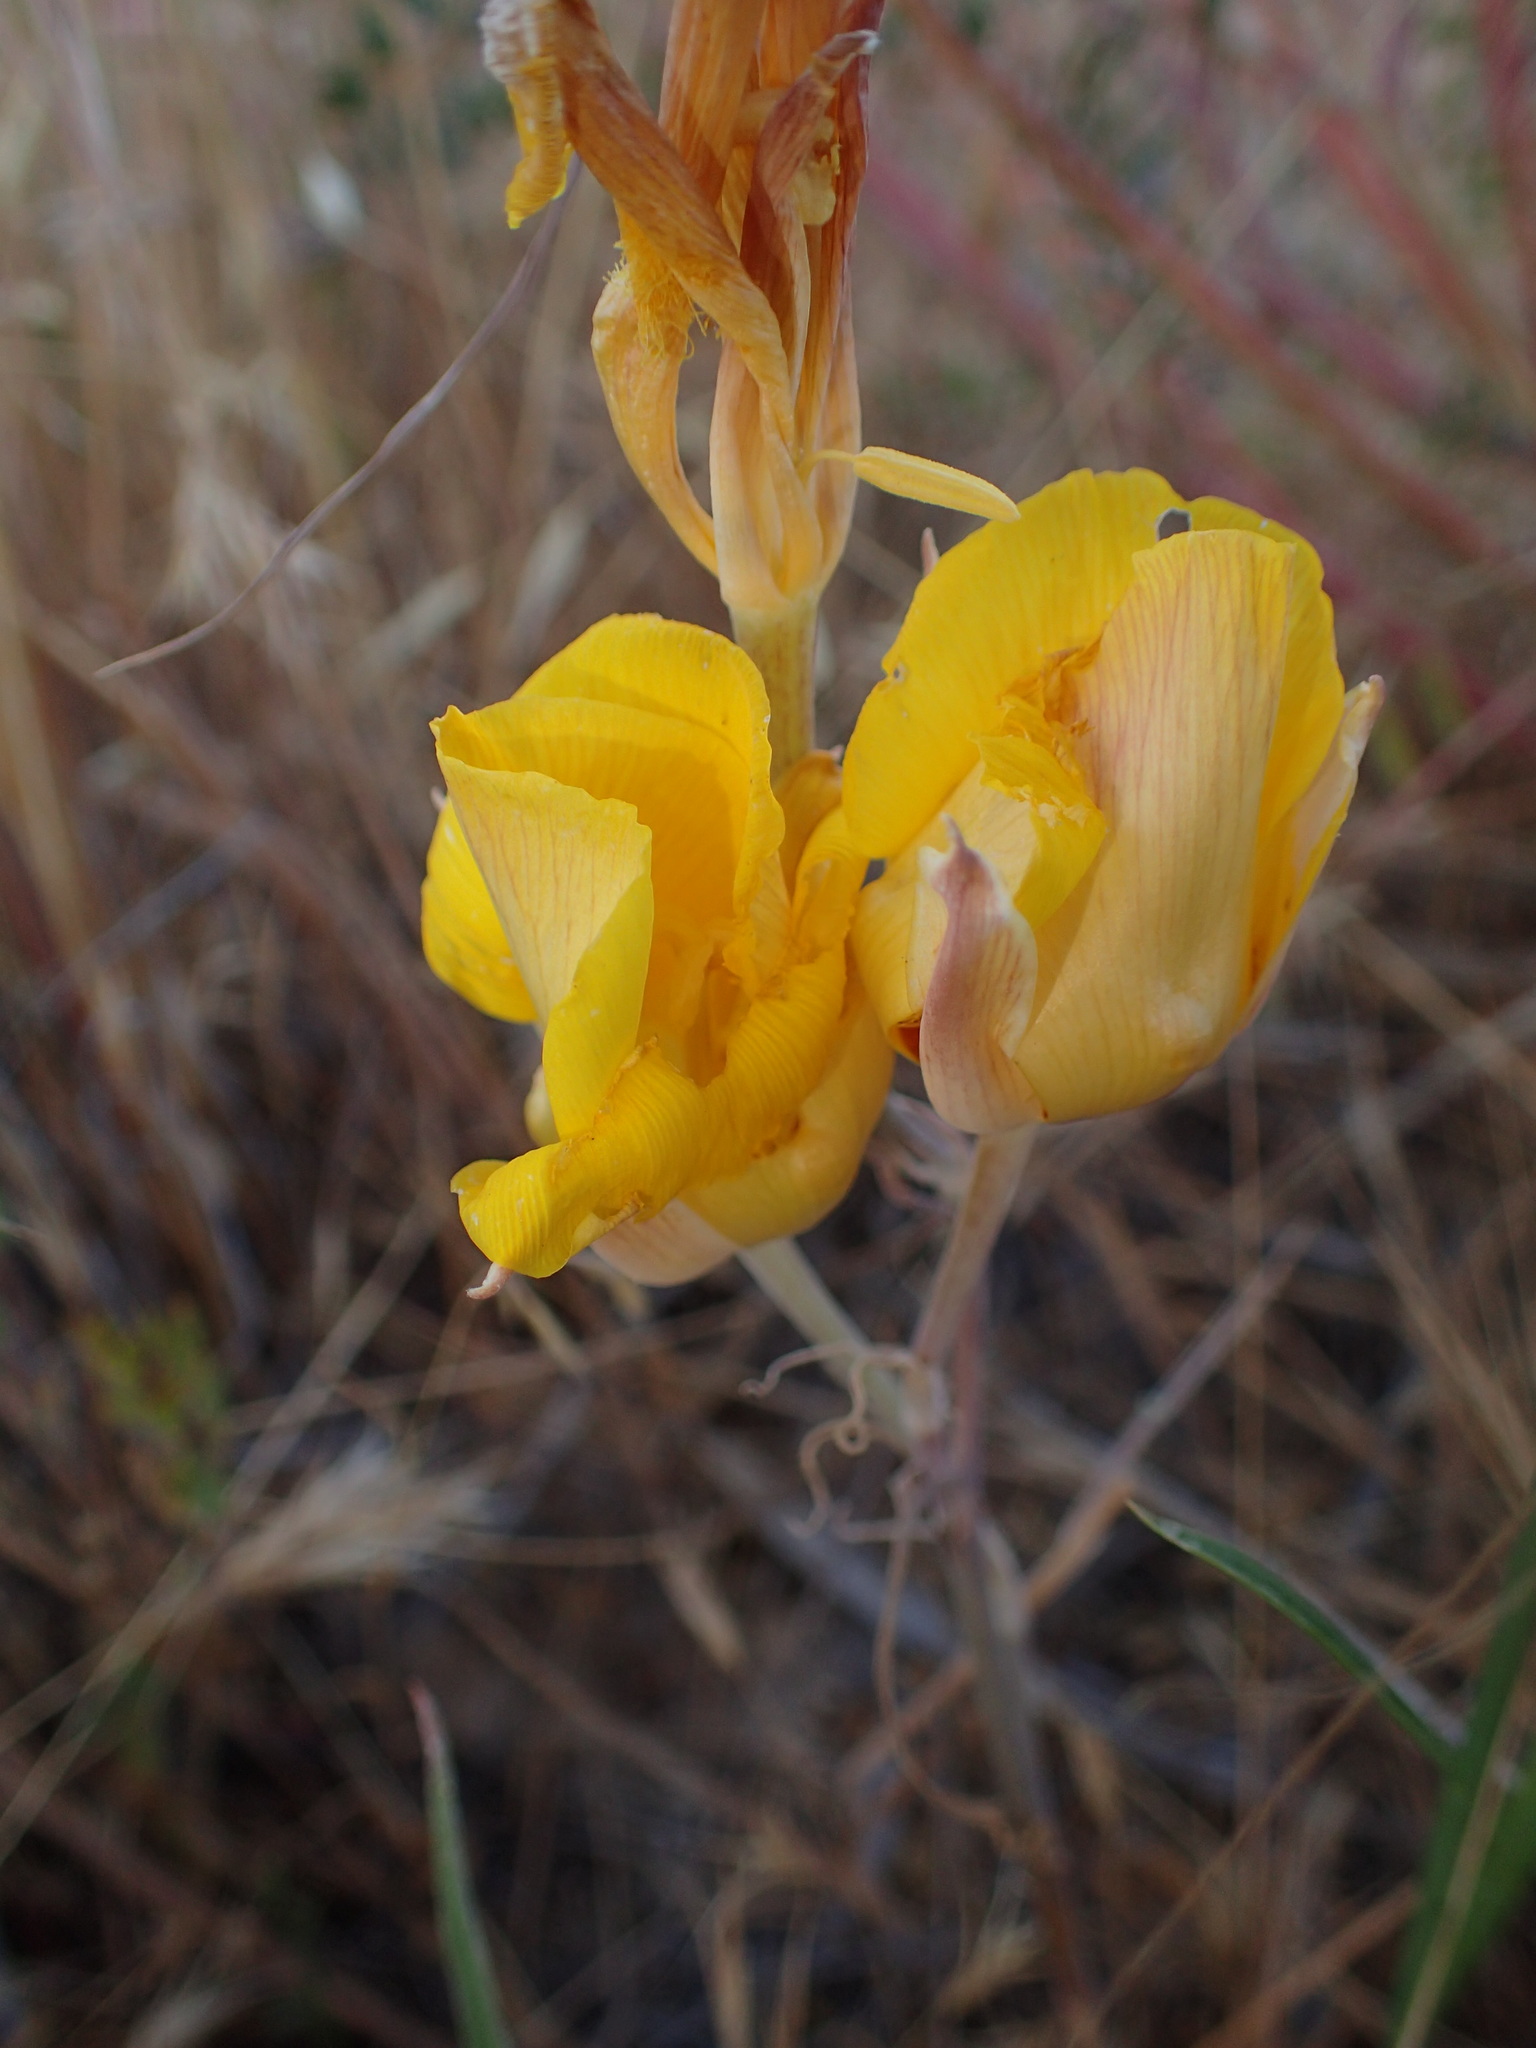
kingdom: Plantae
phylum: Tracheophyta
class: Liliopsida
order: Liliales
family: Liliaceae
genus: Calochortus
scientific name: Calochortus clavatus
